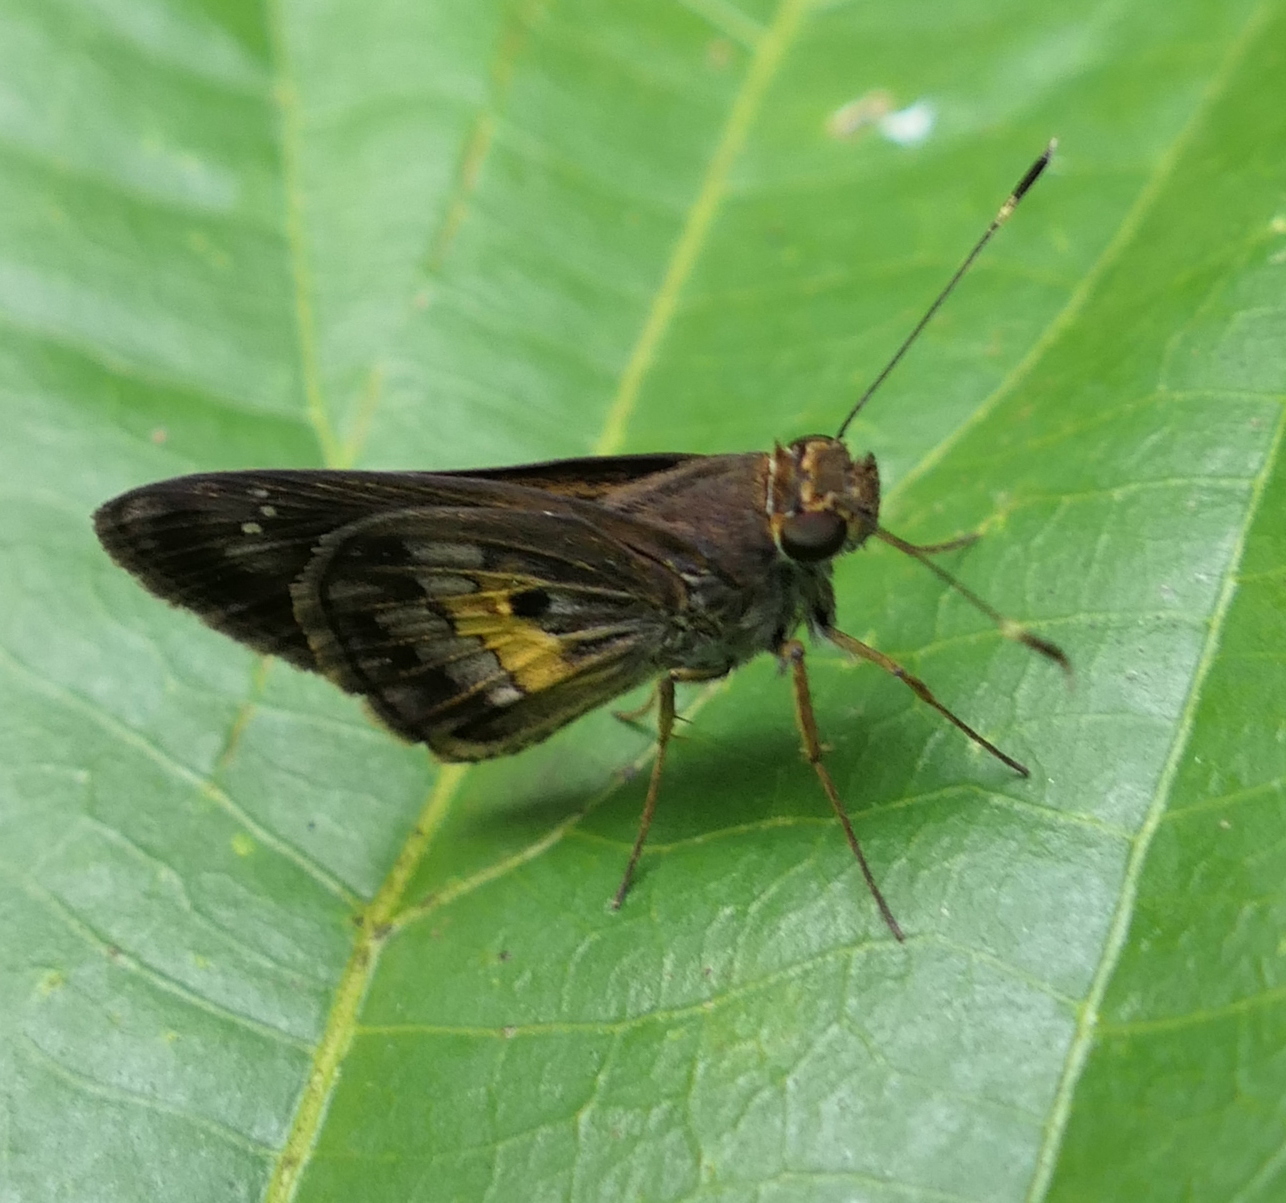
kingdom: Animalia
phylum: Arthropoda
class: Insecta
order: Lepidoptera
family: Hesperiidae
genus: Phanis
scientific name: Phanis aletes
